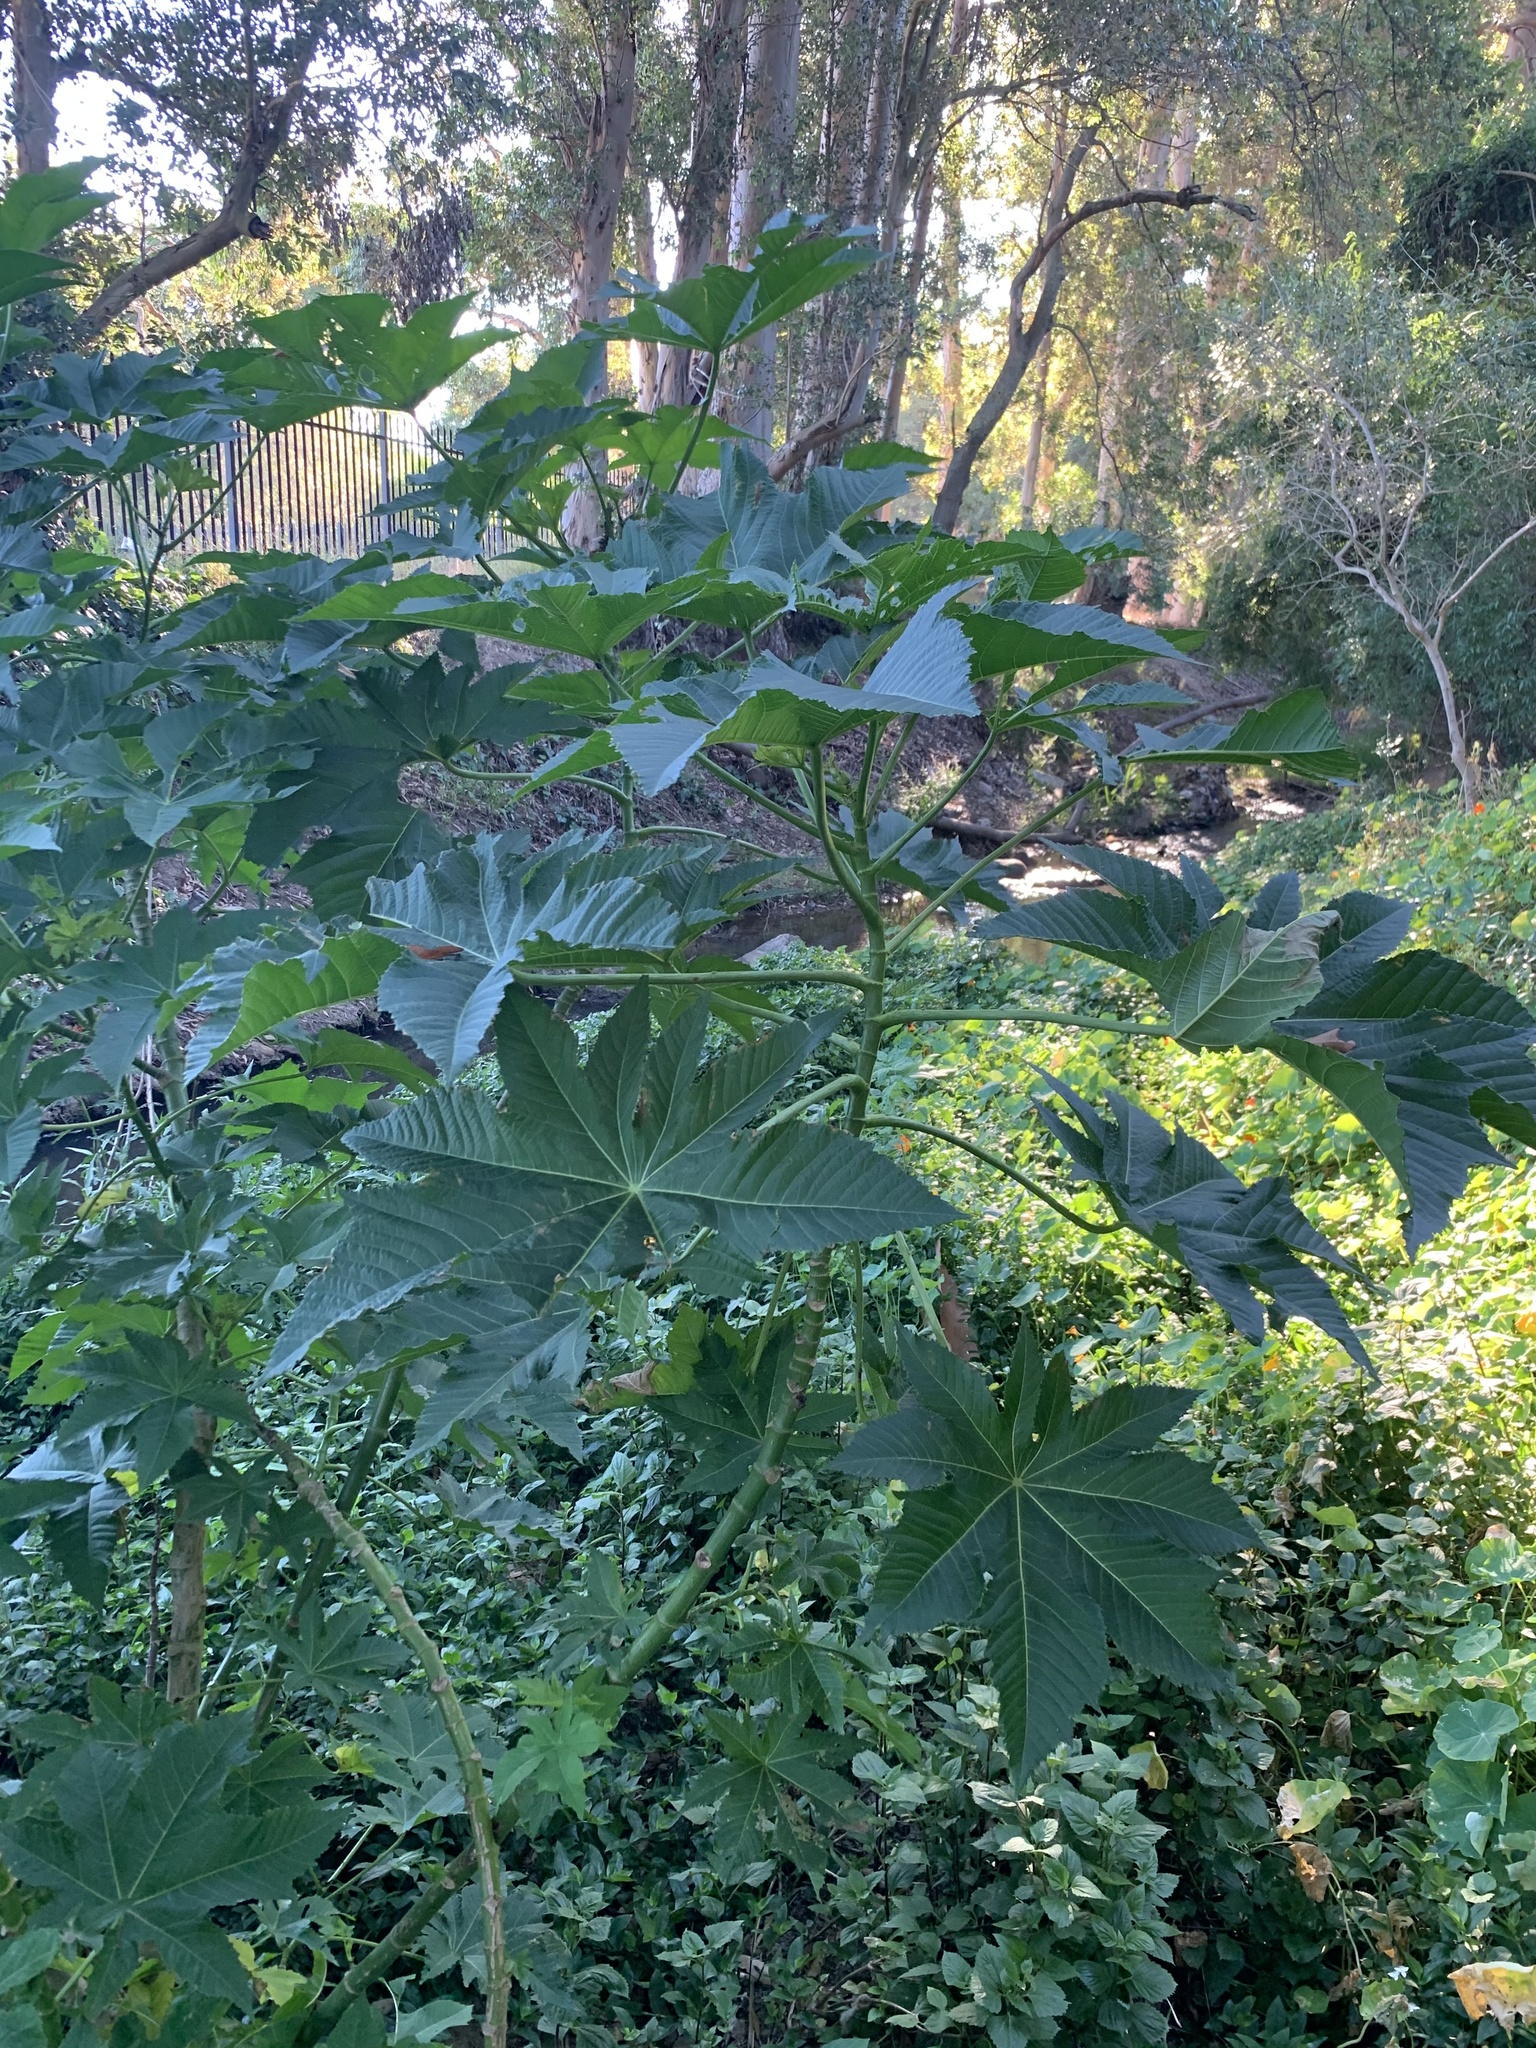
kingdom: Plantae
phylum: Tracheophyta
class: Magnoliopsida
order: Malpighiales
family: Euphorbiaceae
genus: Ricinus
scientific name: Ricinus communis
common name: Castor-oil-plant
